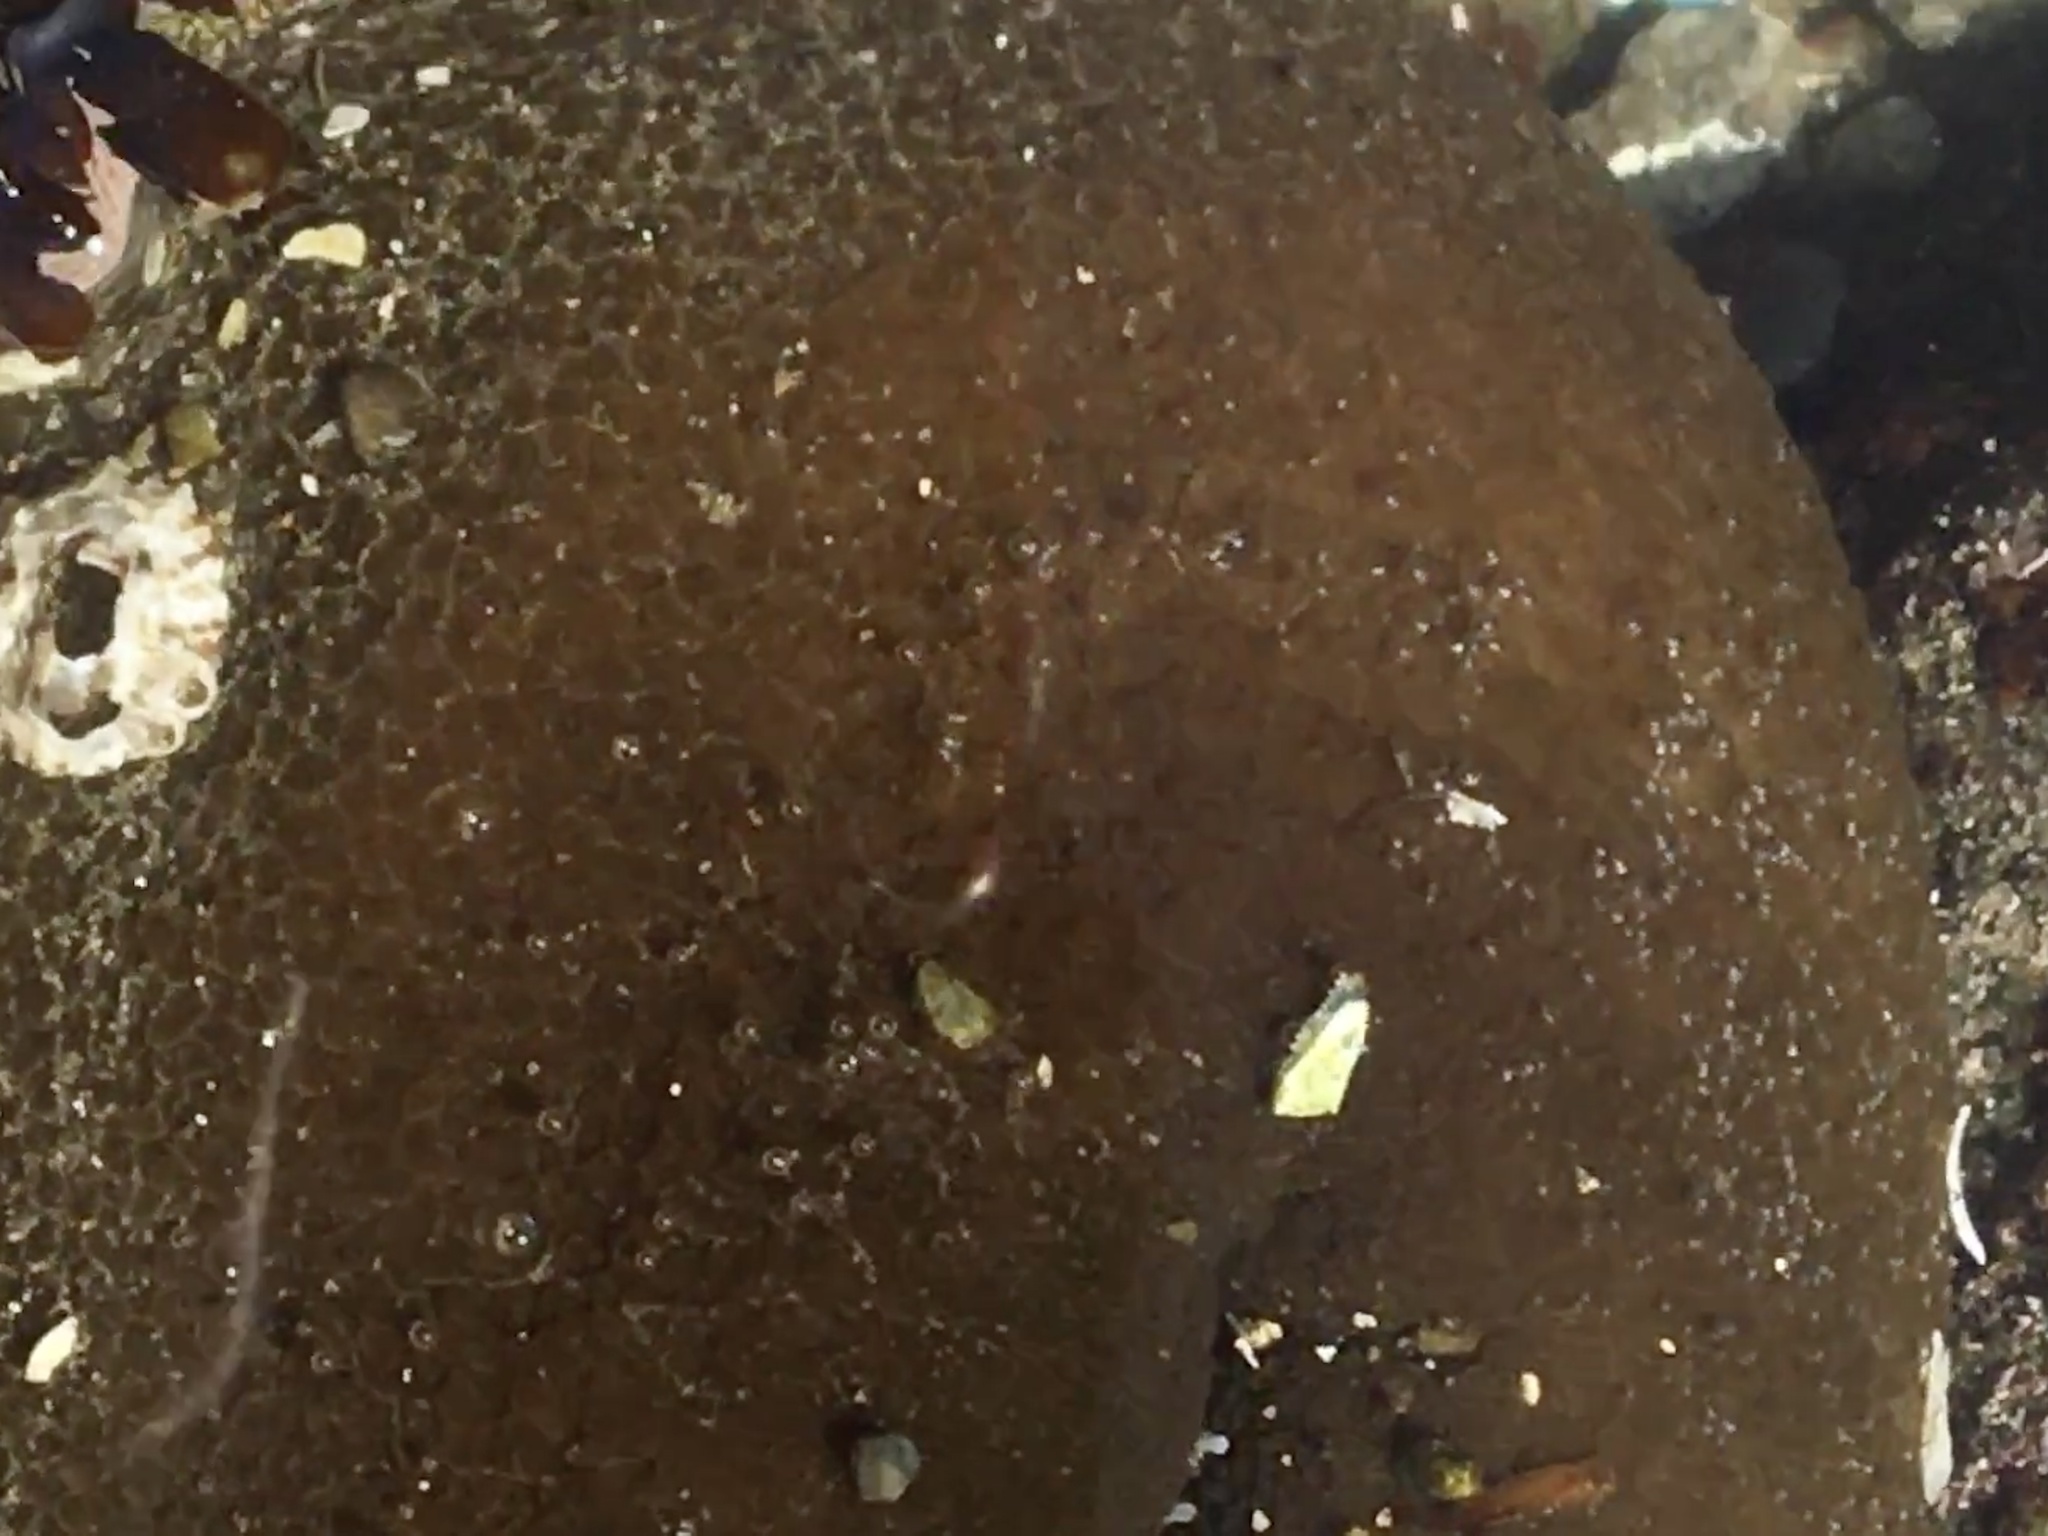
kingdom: Animalia
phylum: Cnidaria
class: Anthozoa
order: Actiniaria
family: Actiniidae
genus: Anthopleura
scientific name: Anthopleura xanthogrammica
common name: Giant green anemone
